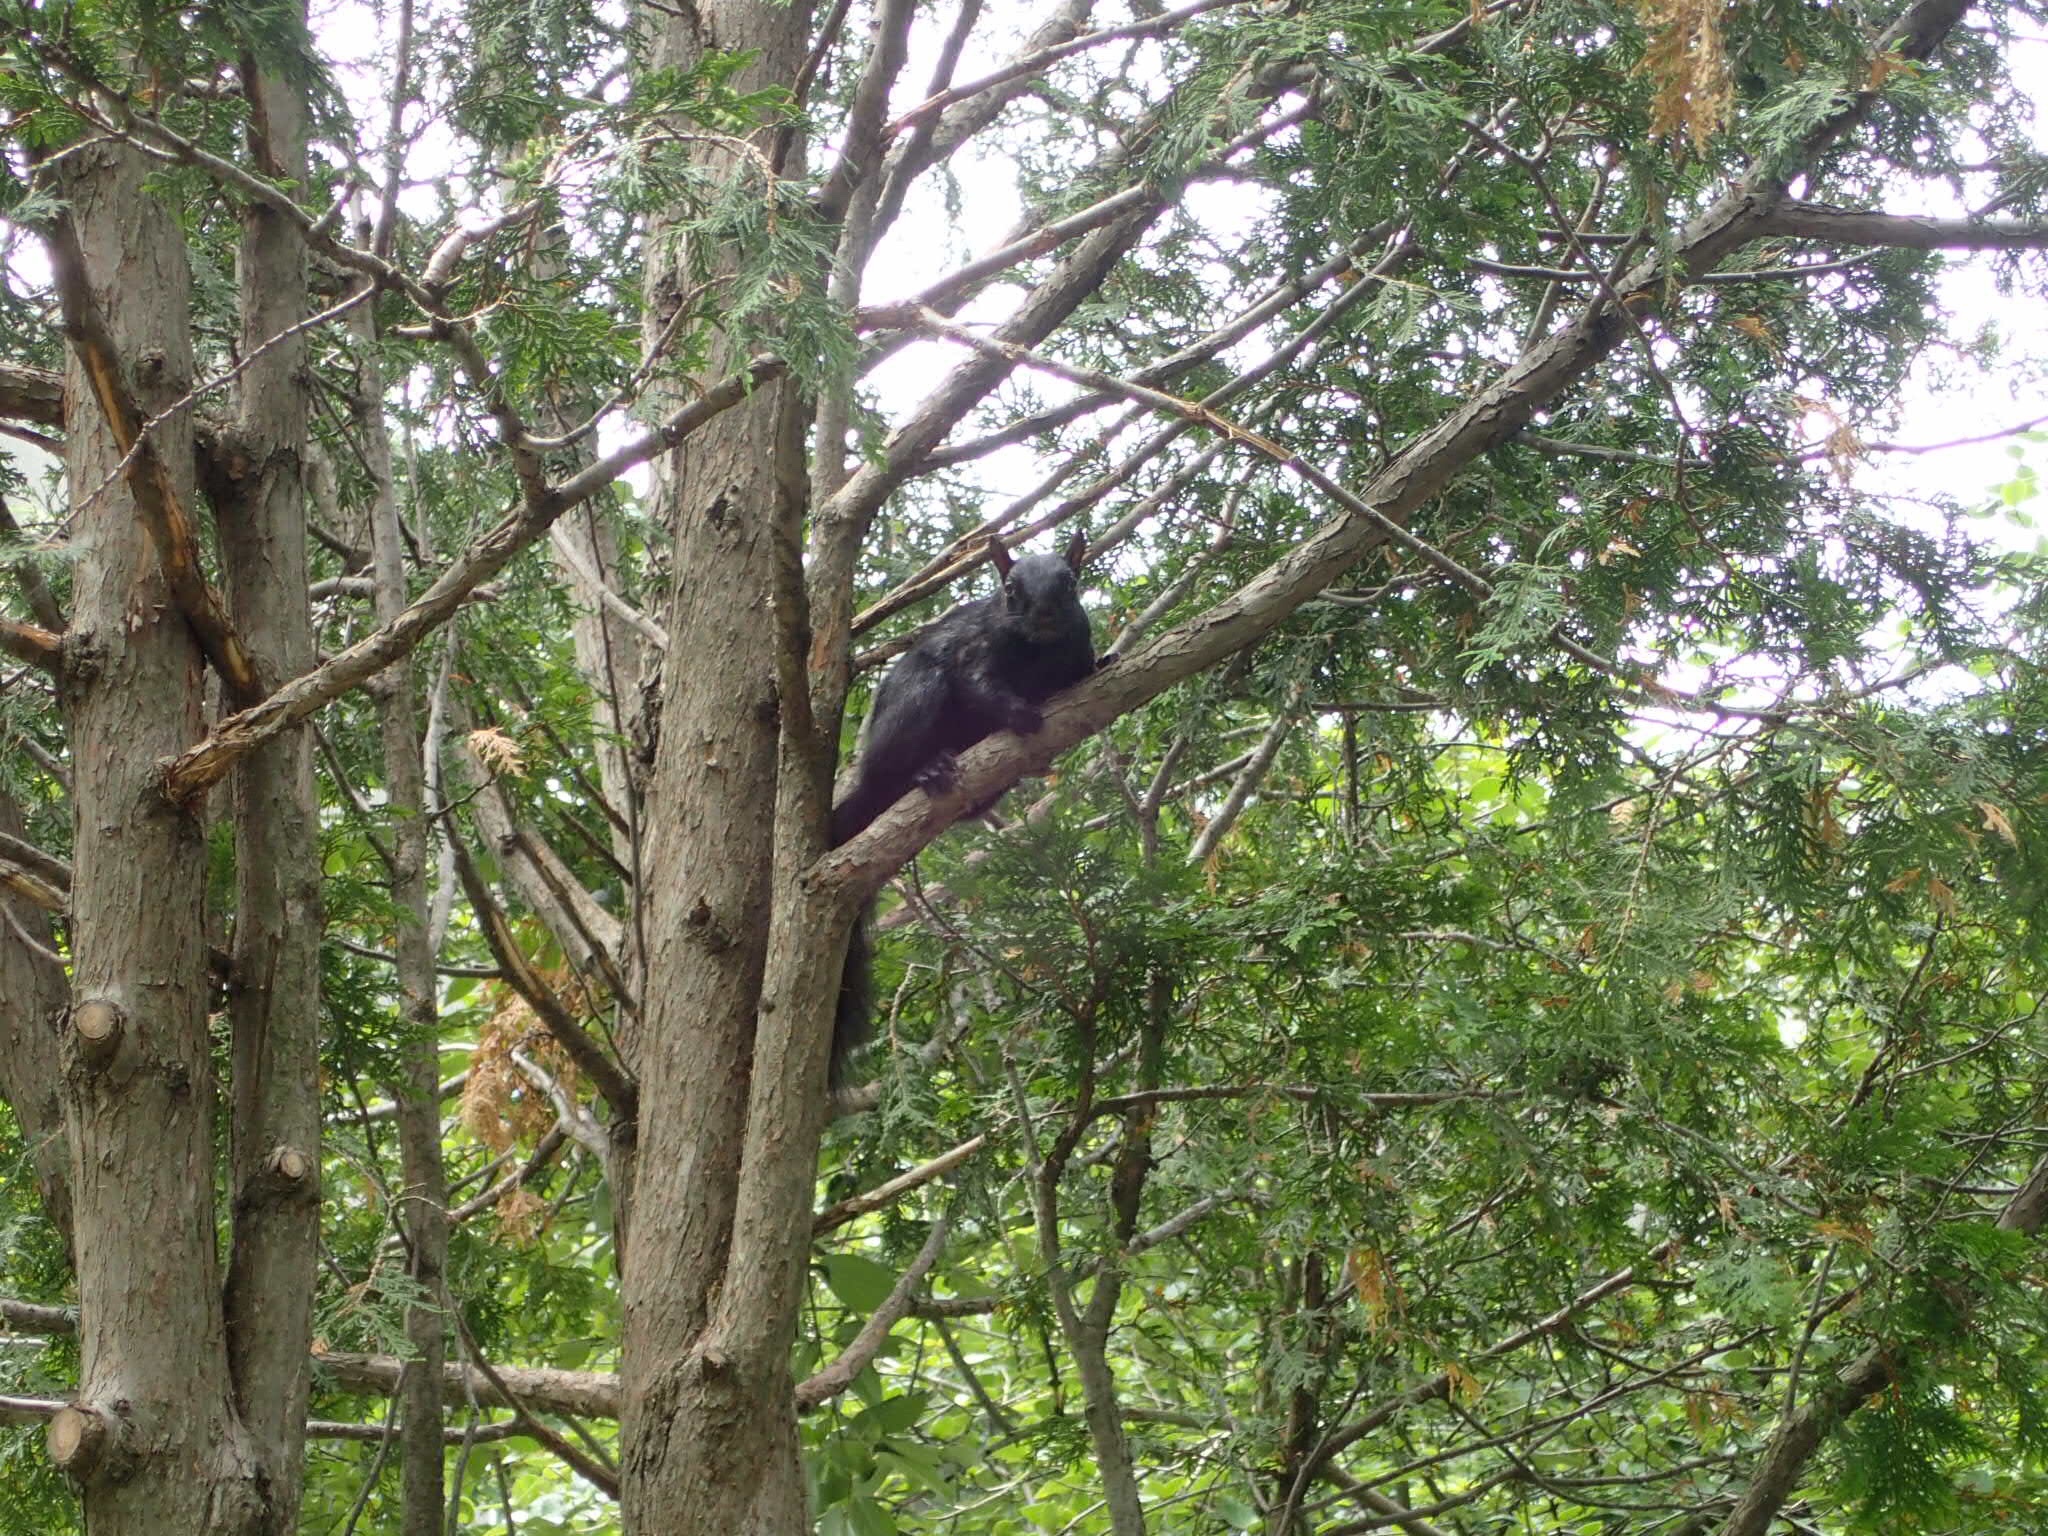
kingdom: Animalia
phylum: Chordata
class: Mammalia
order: Rodentia
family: Sciuridae
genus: Sciurus
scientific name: Sciurus carolinensis
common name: Eastern gray squirrel
